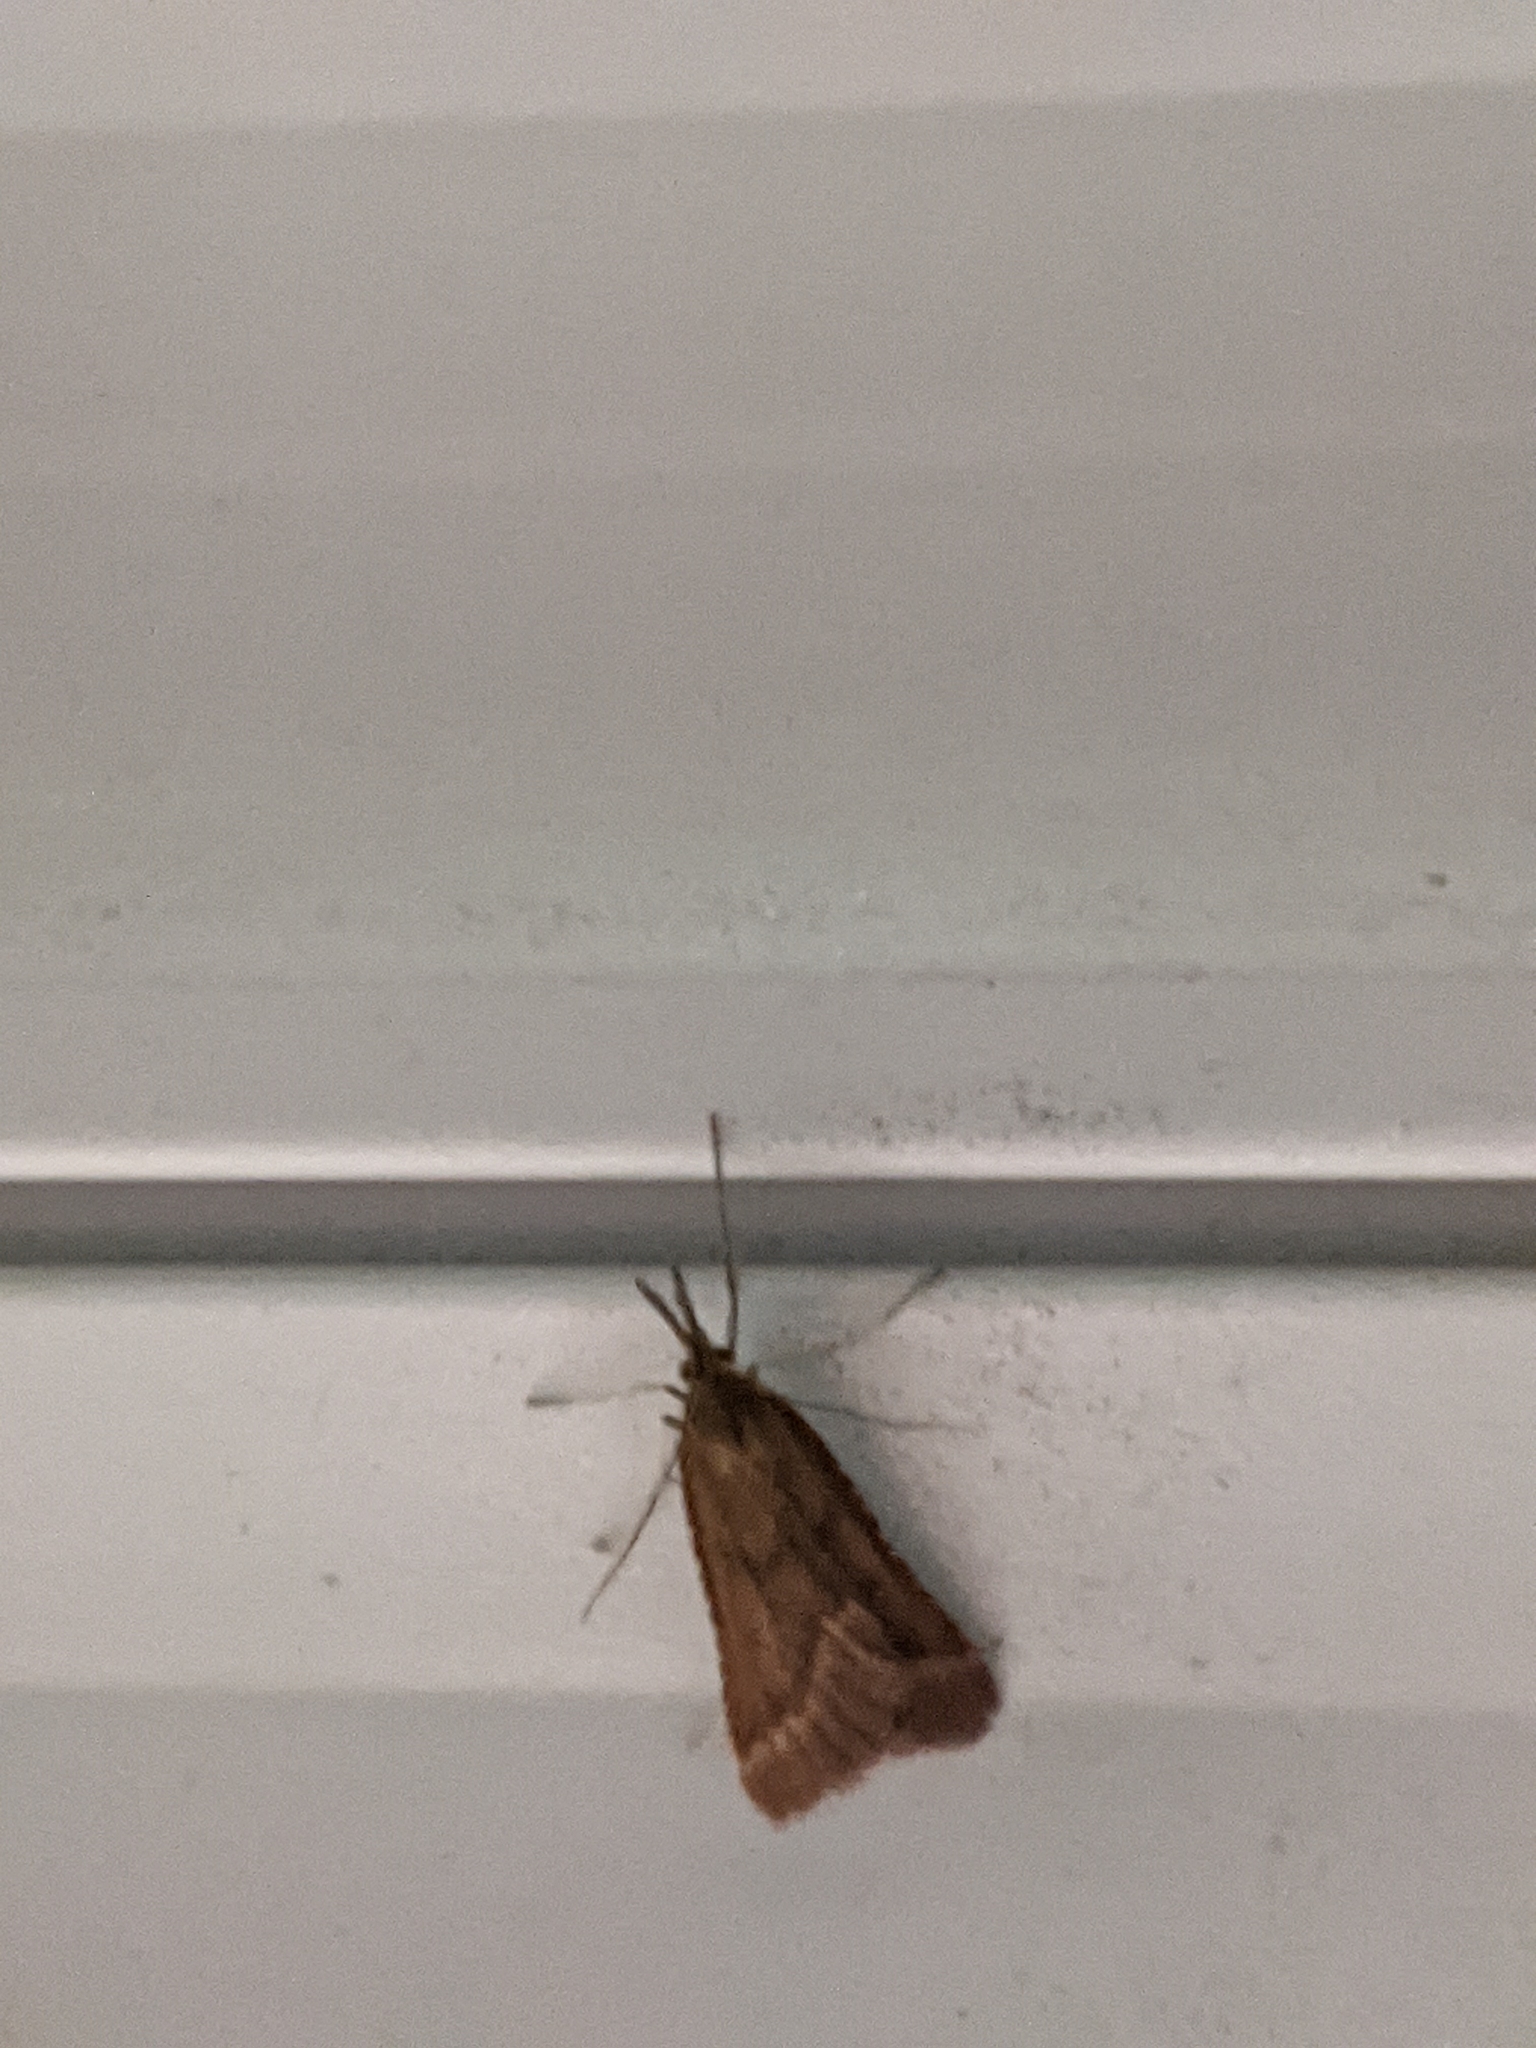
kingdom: Animalia
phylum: Arthropoda
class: Insecta
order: Lepidoptera
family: Pyralidae
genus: Synaphe
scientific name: Synaphe punctalis
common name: Long-legged tabby
